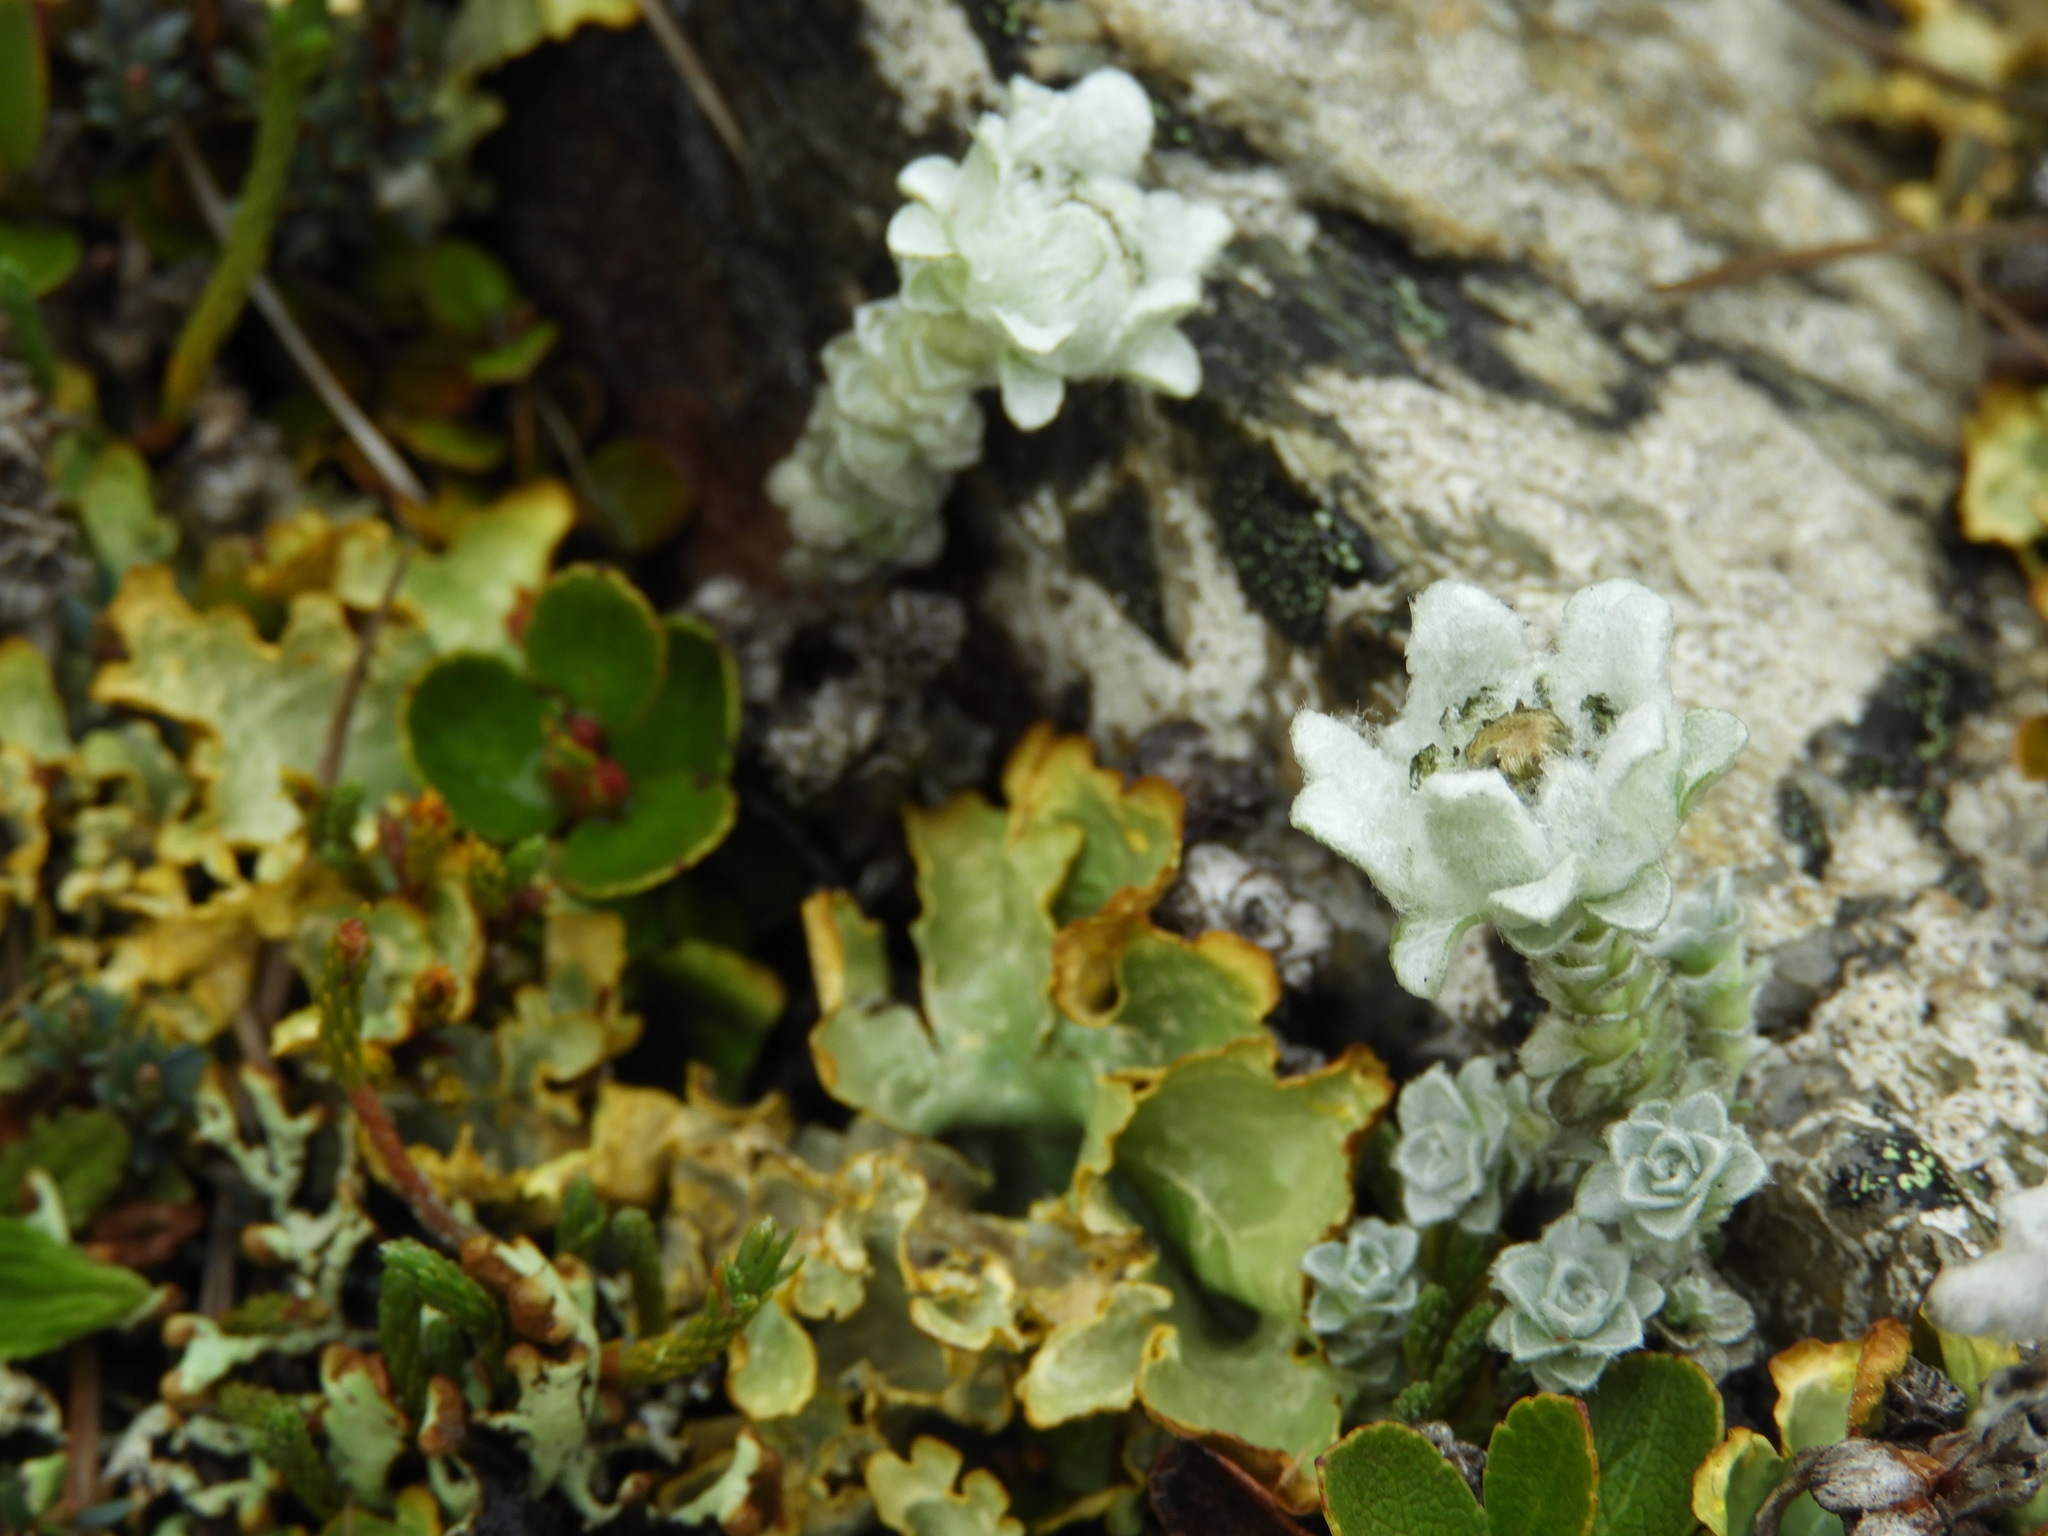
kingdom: Plantae
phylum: Tracheophyta
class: Magnoliopsida
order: Asterales
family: Asteraceae
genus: Leucogenes
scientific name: Leucogenes grandiceps
